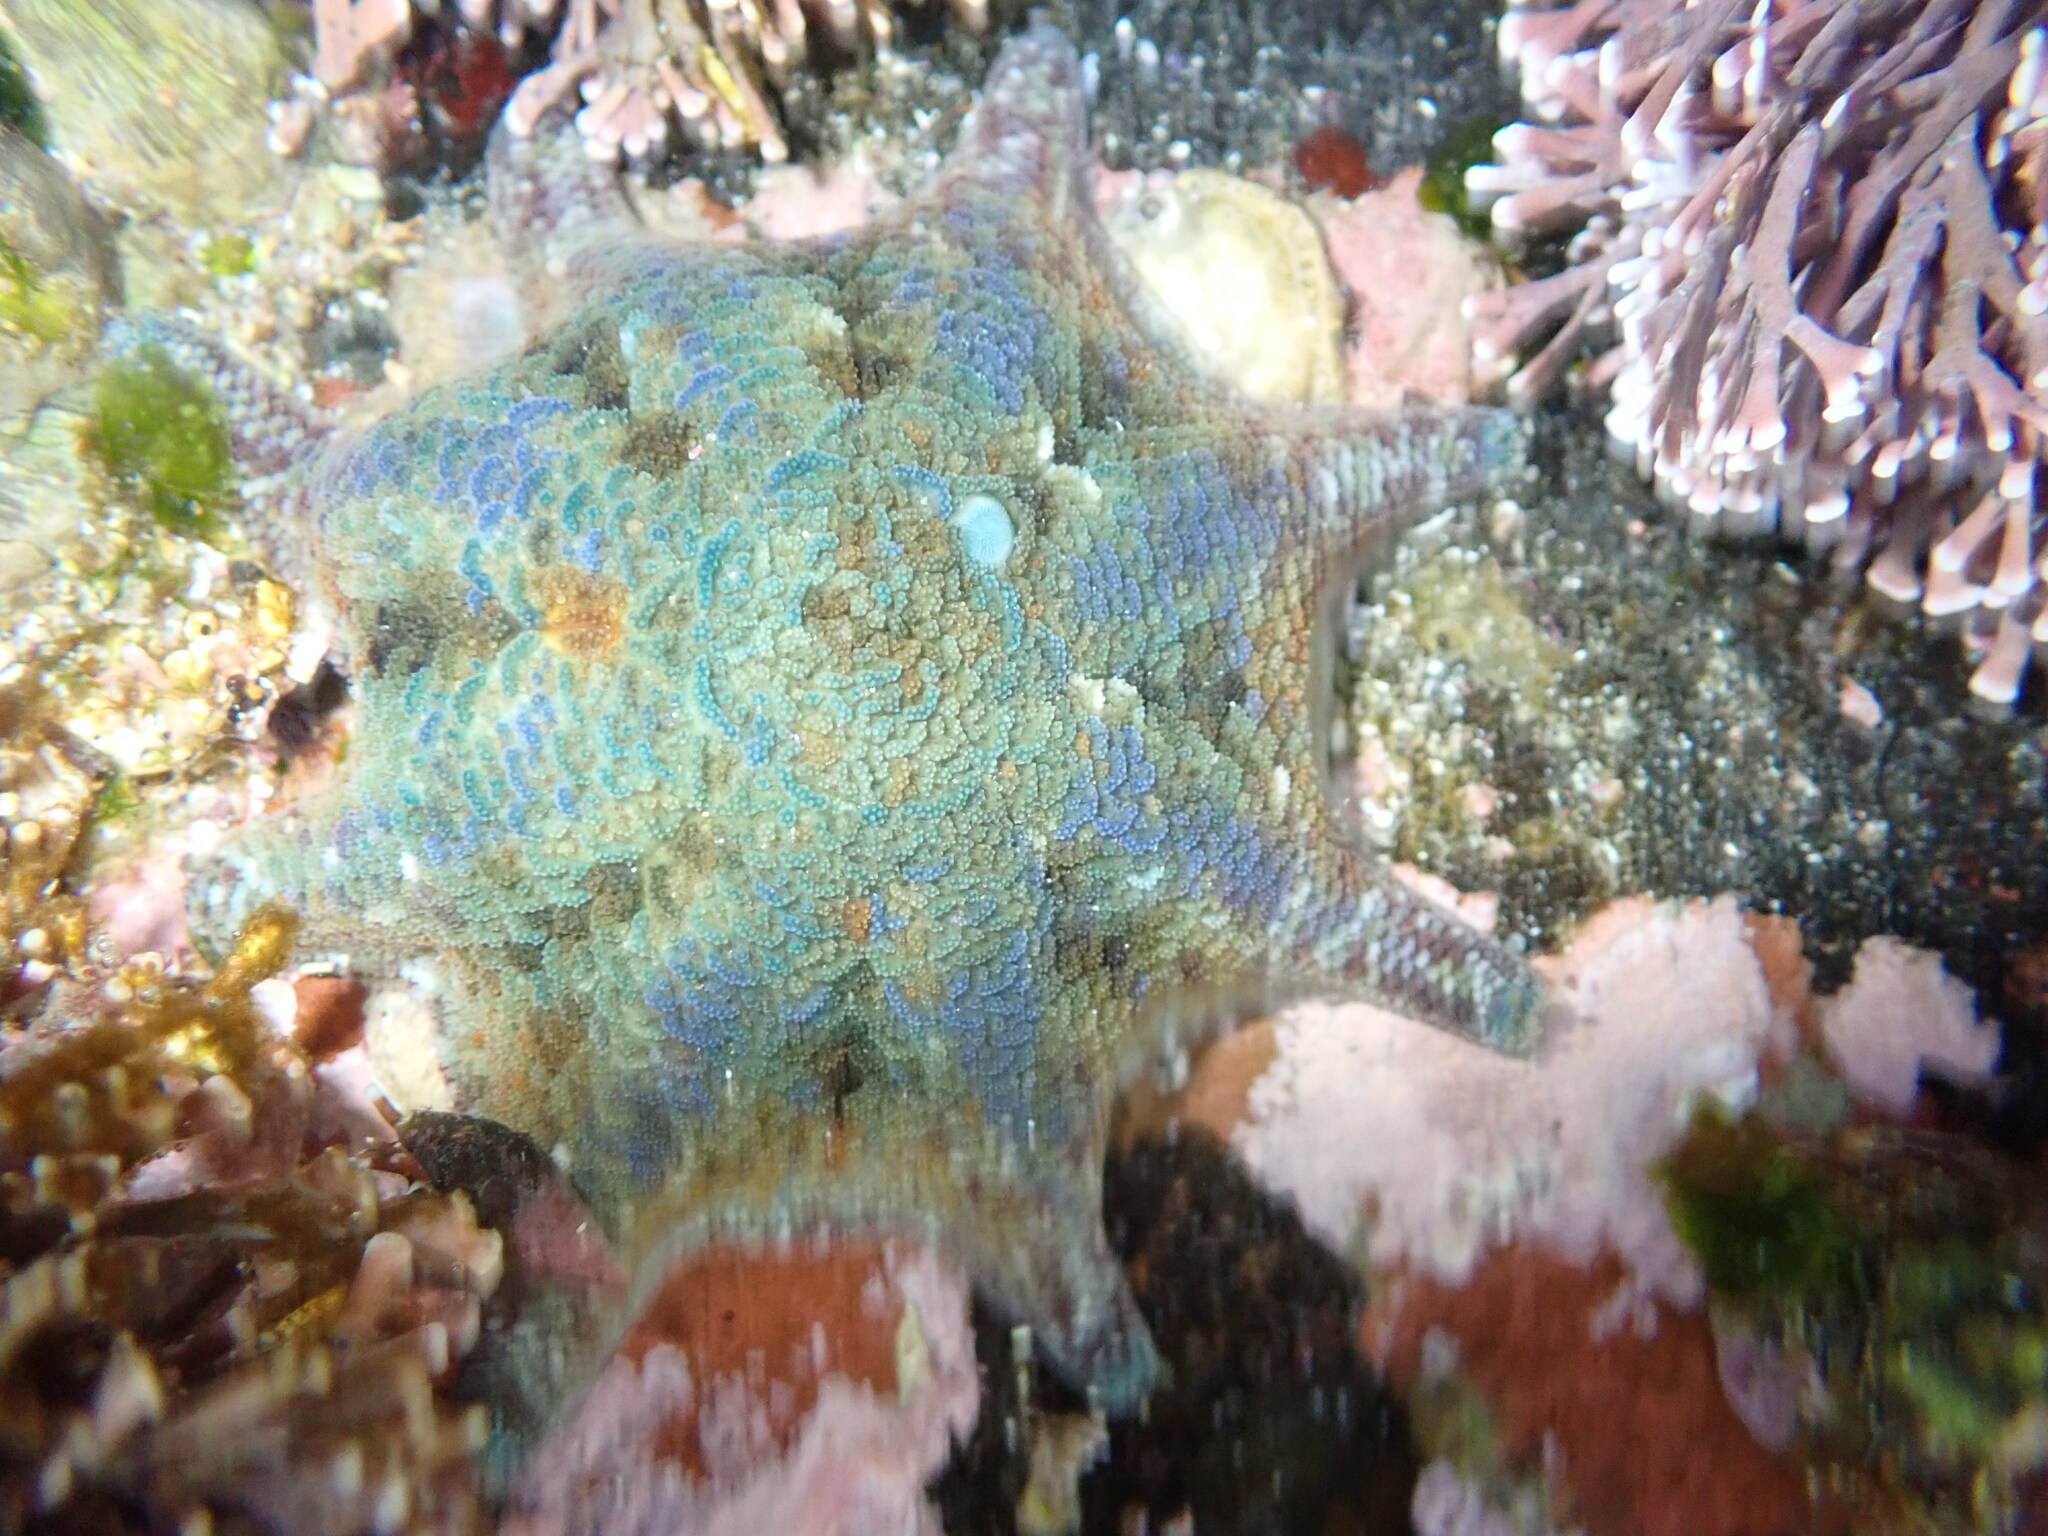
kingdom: Animalia
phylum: Echinodermata
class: Asteroidea
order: Valvatida
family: Asterinidae
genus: Meridiastra
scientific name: Meridiastra calcar
